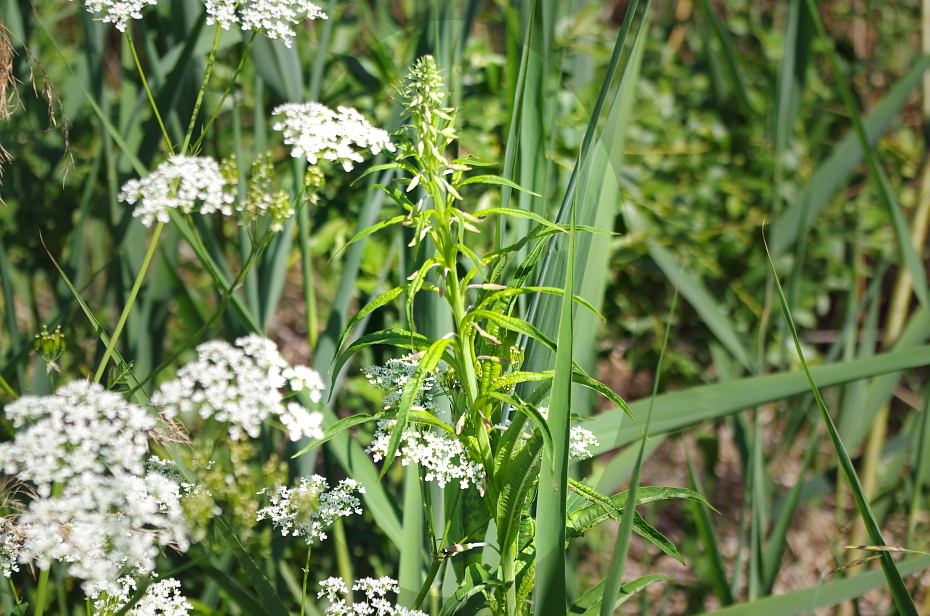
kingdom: Plantae
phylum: Tracheophyta
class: Magnoliopsida
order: Myrtales
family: Onagraceae
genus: Chamaenerion
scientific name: Chamaenerion angustifolium
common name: Fireweed
